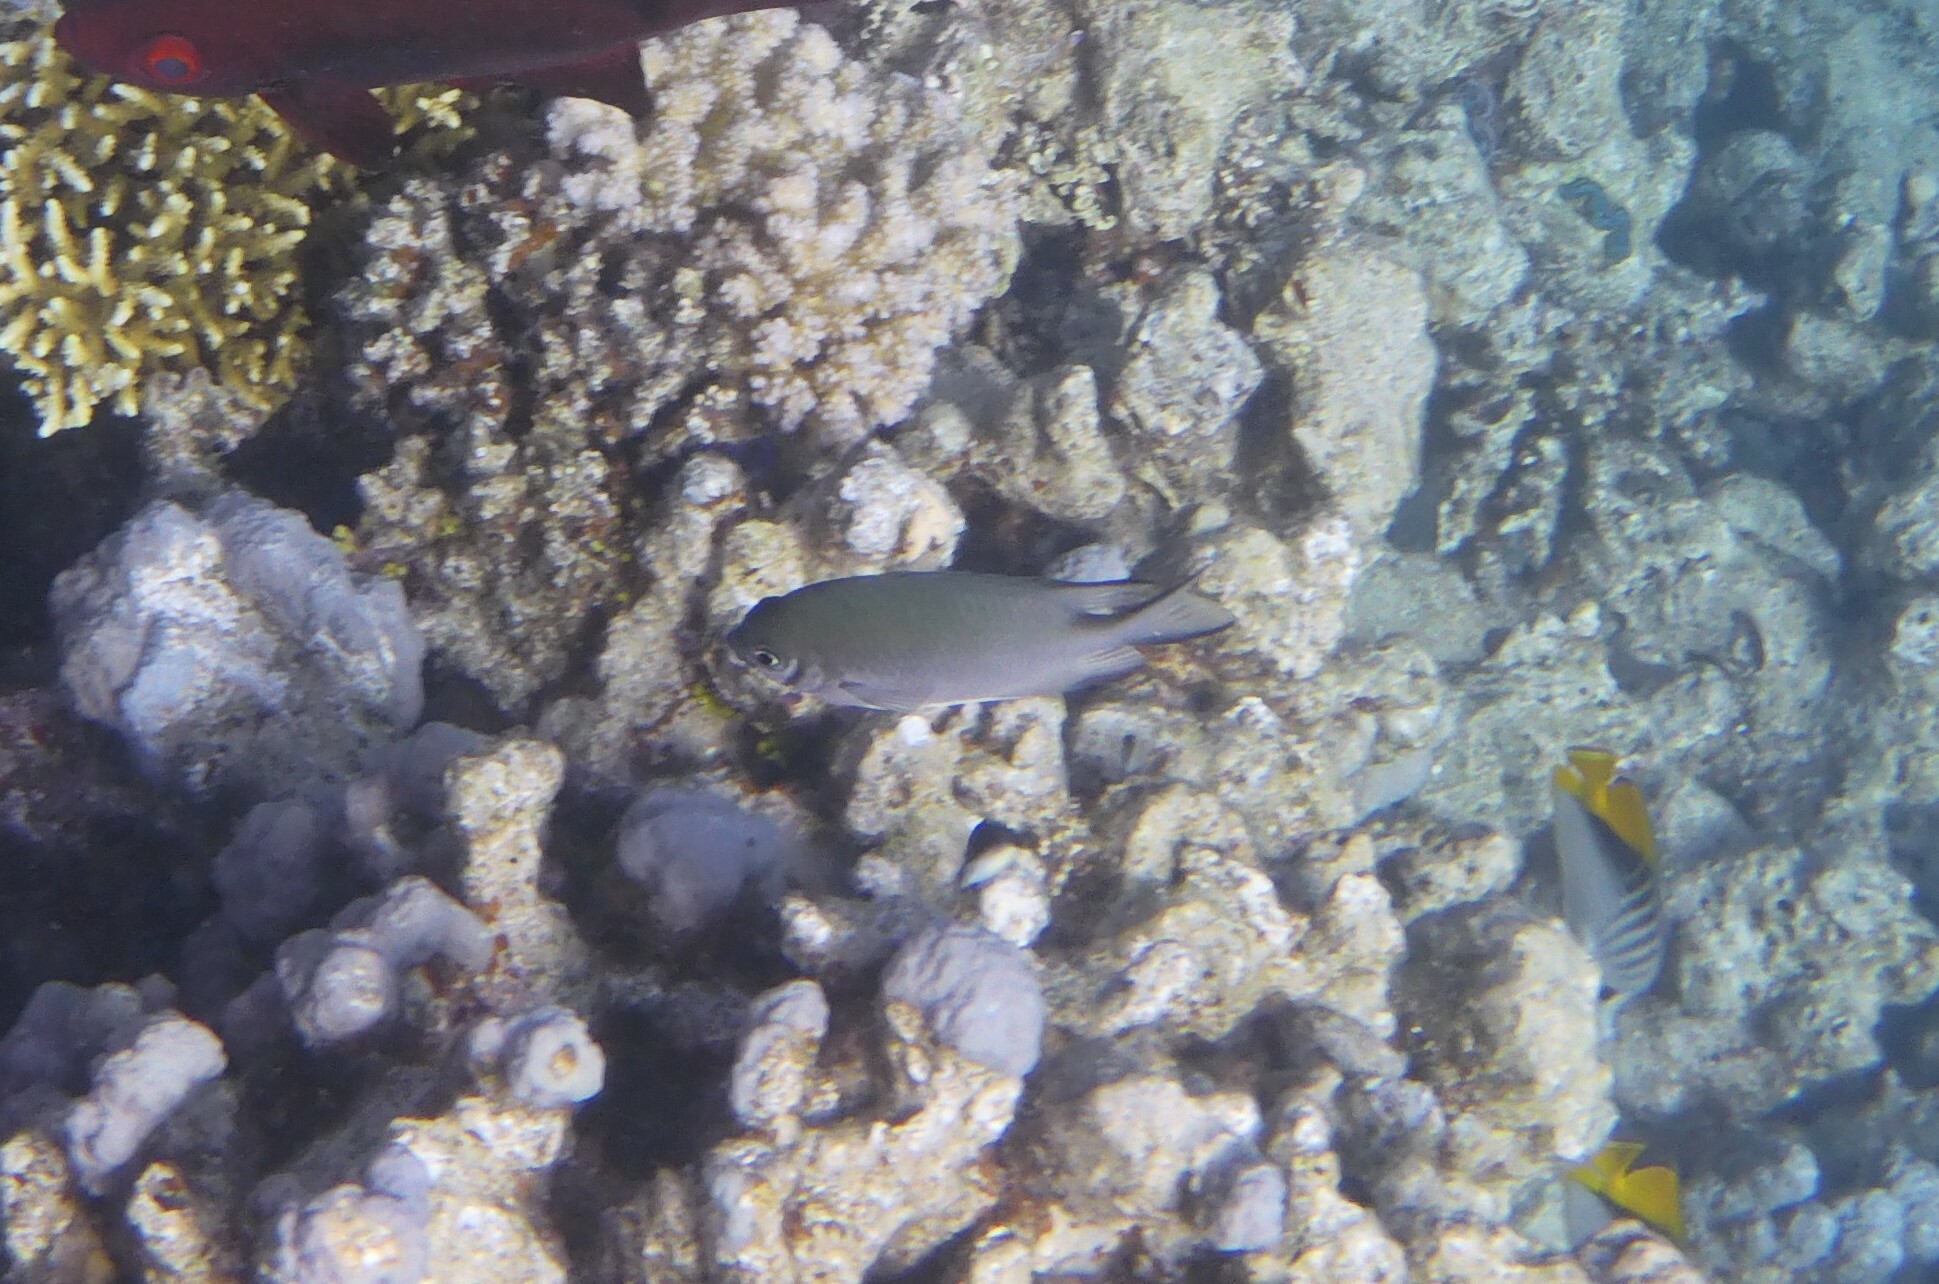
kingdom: Animalia
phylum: Chordata
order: Perciformes
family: Pomacentridae
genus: Amblyglyphidodon
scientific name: Amblyglyphidodon indicus
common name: Maldives damselfish
